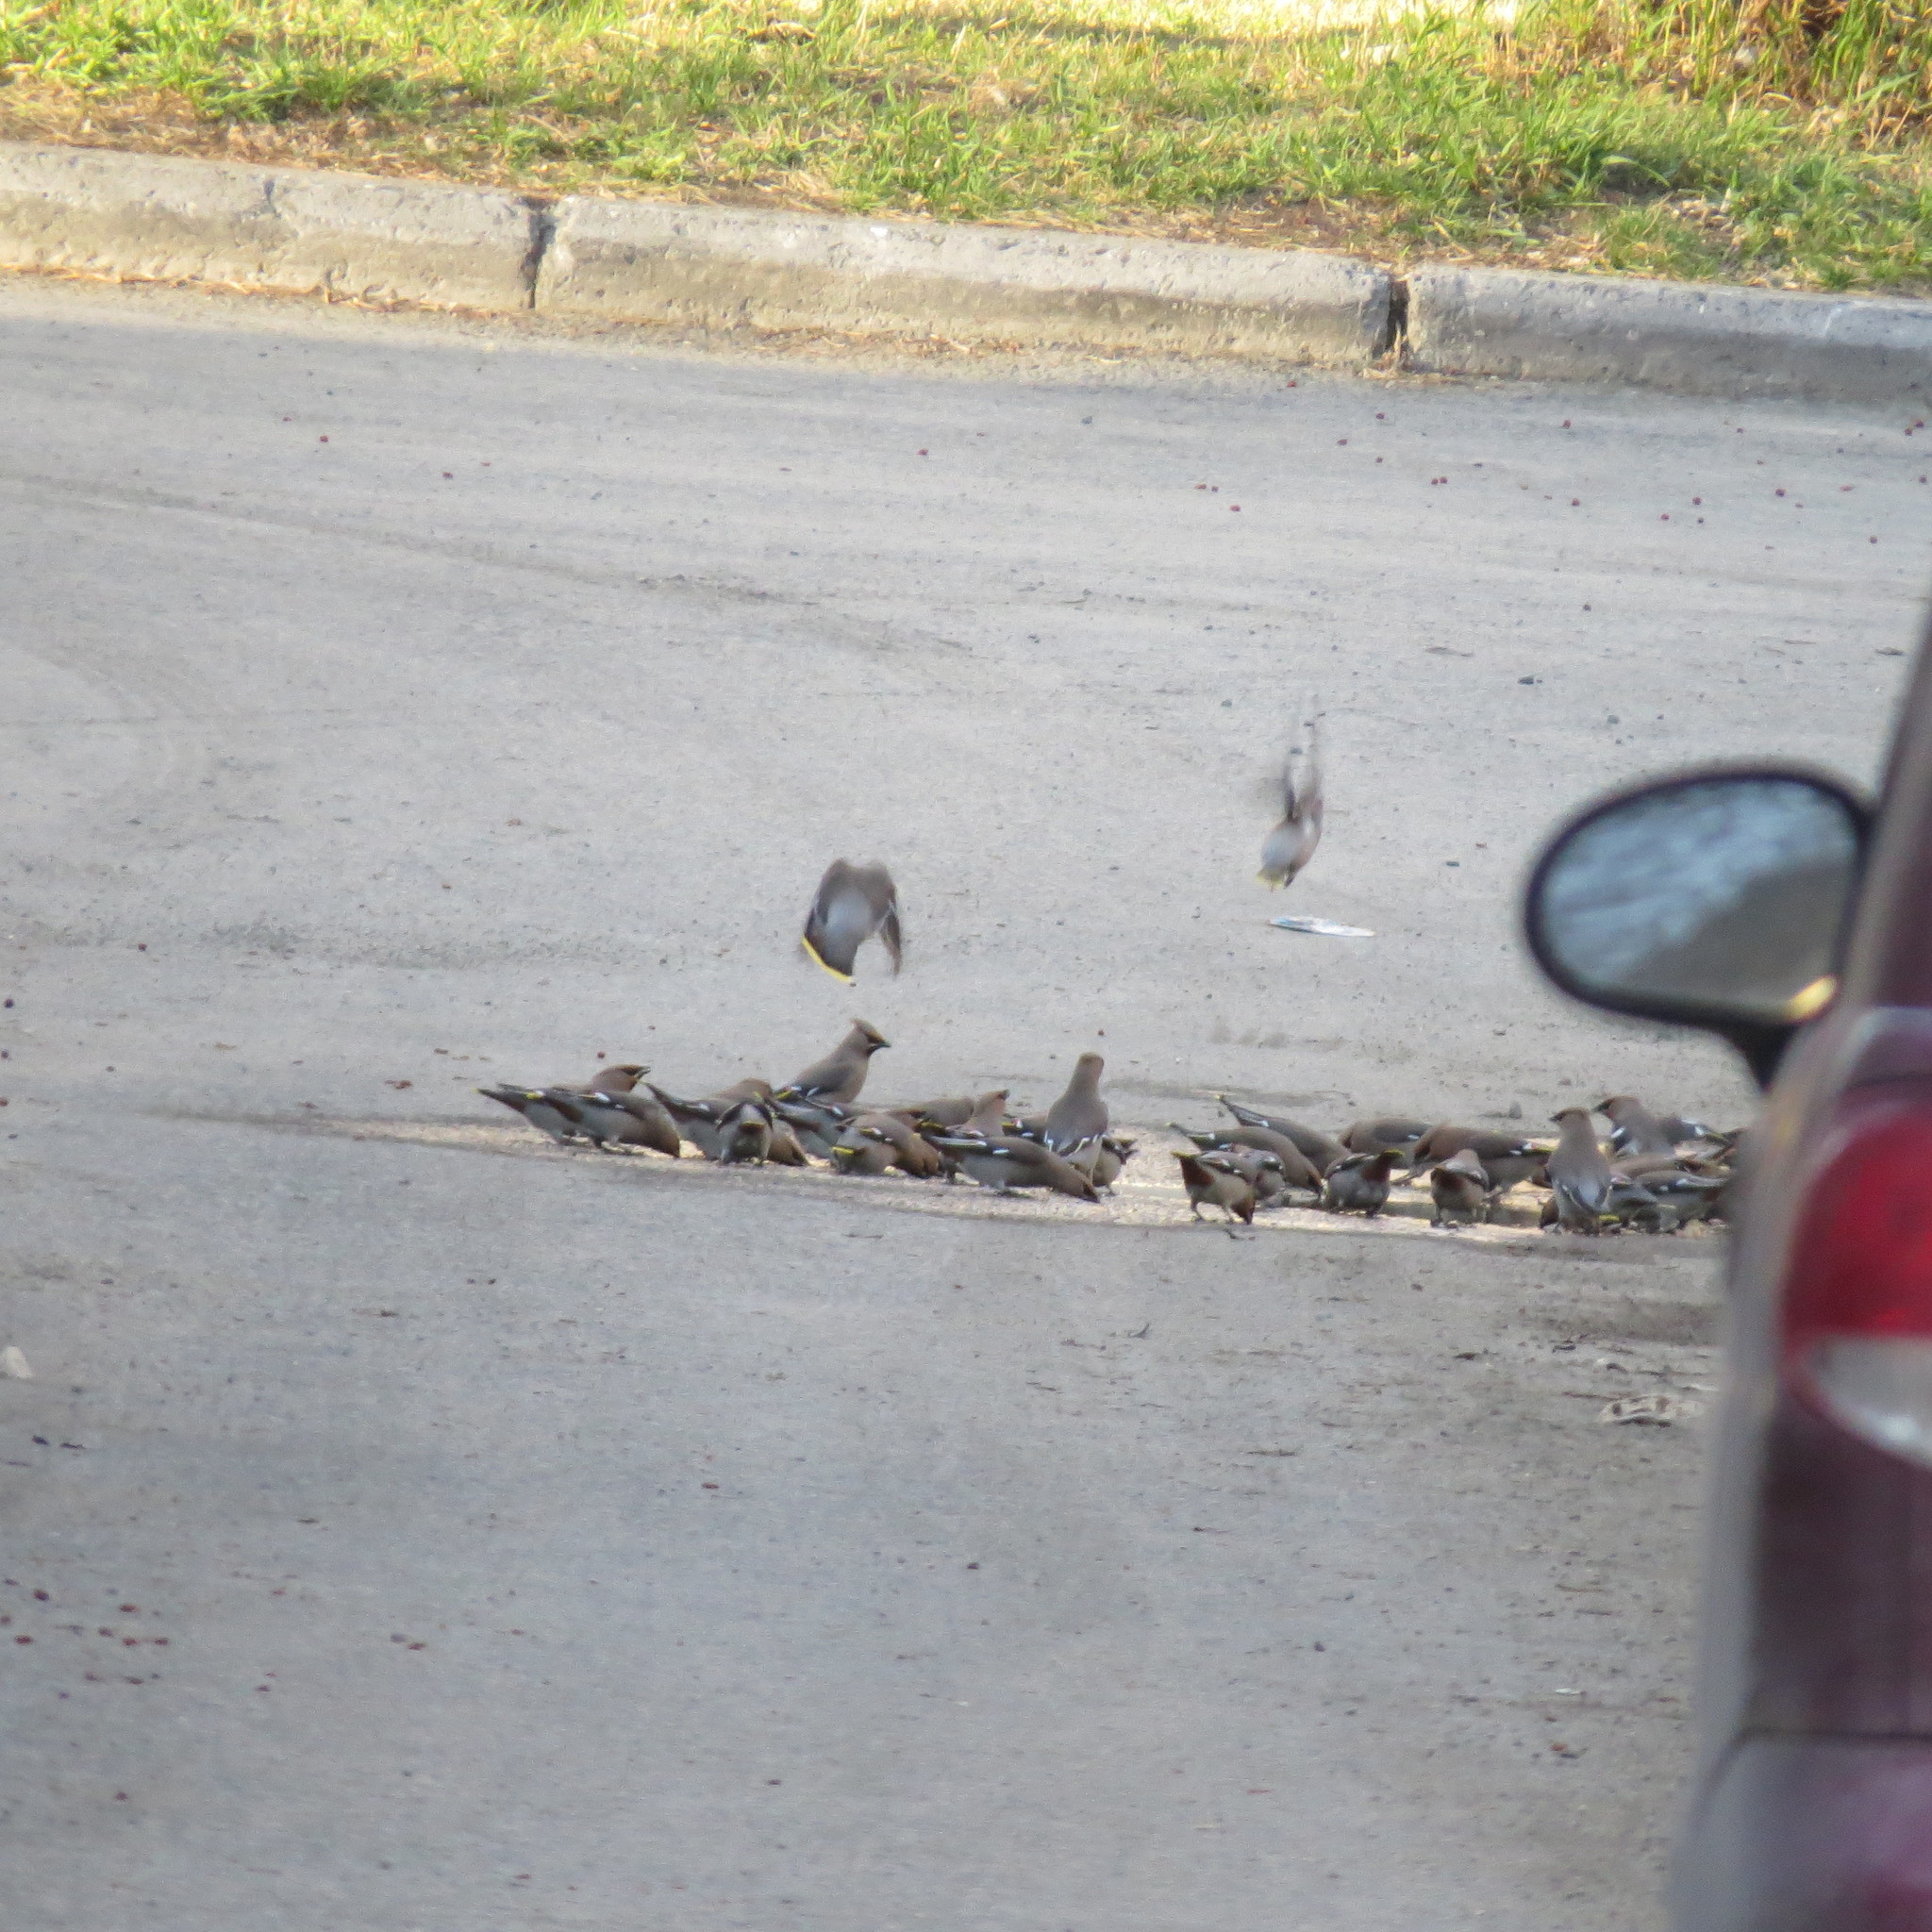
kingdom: Animalia
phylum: Chordata
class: Aves
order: Passeriformes
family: Bombycillidae
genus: Bombycilla
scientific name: Bombycilla garrulus
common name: Bohemian waxwing
